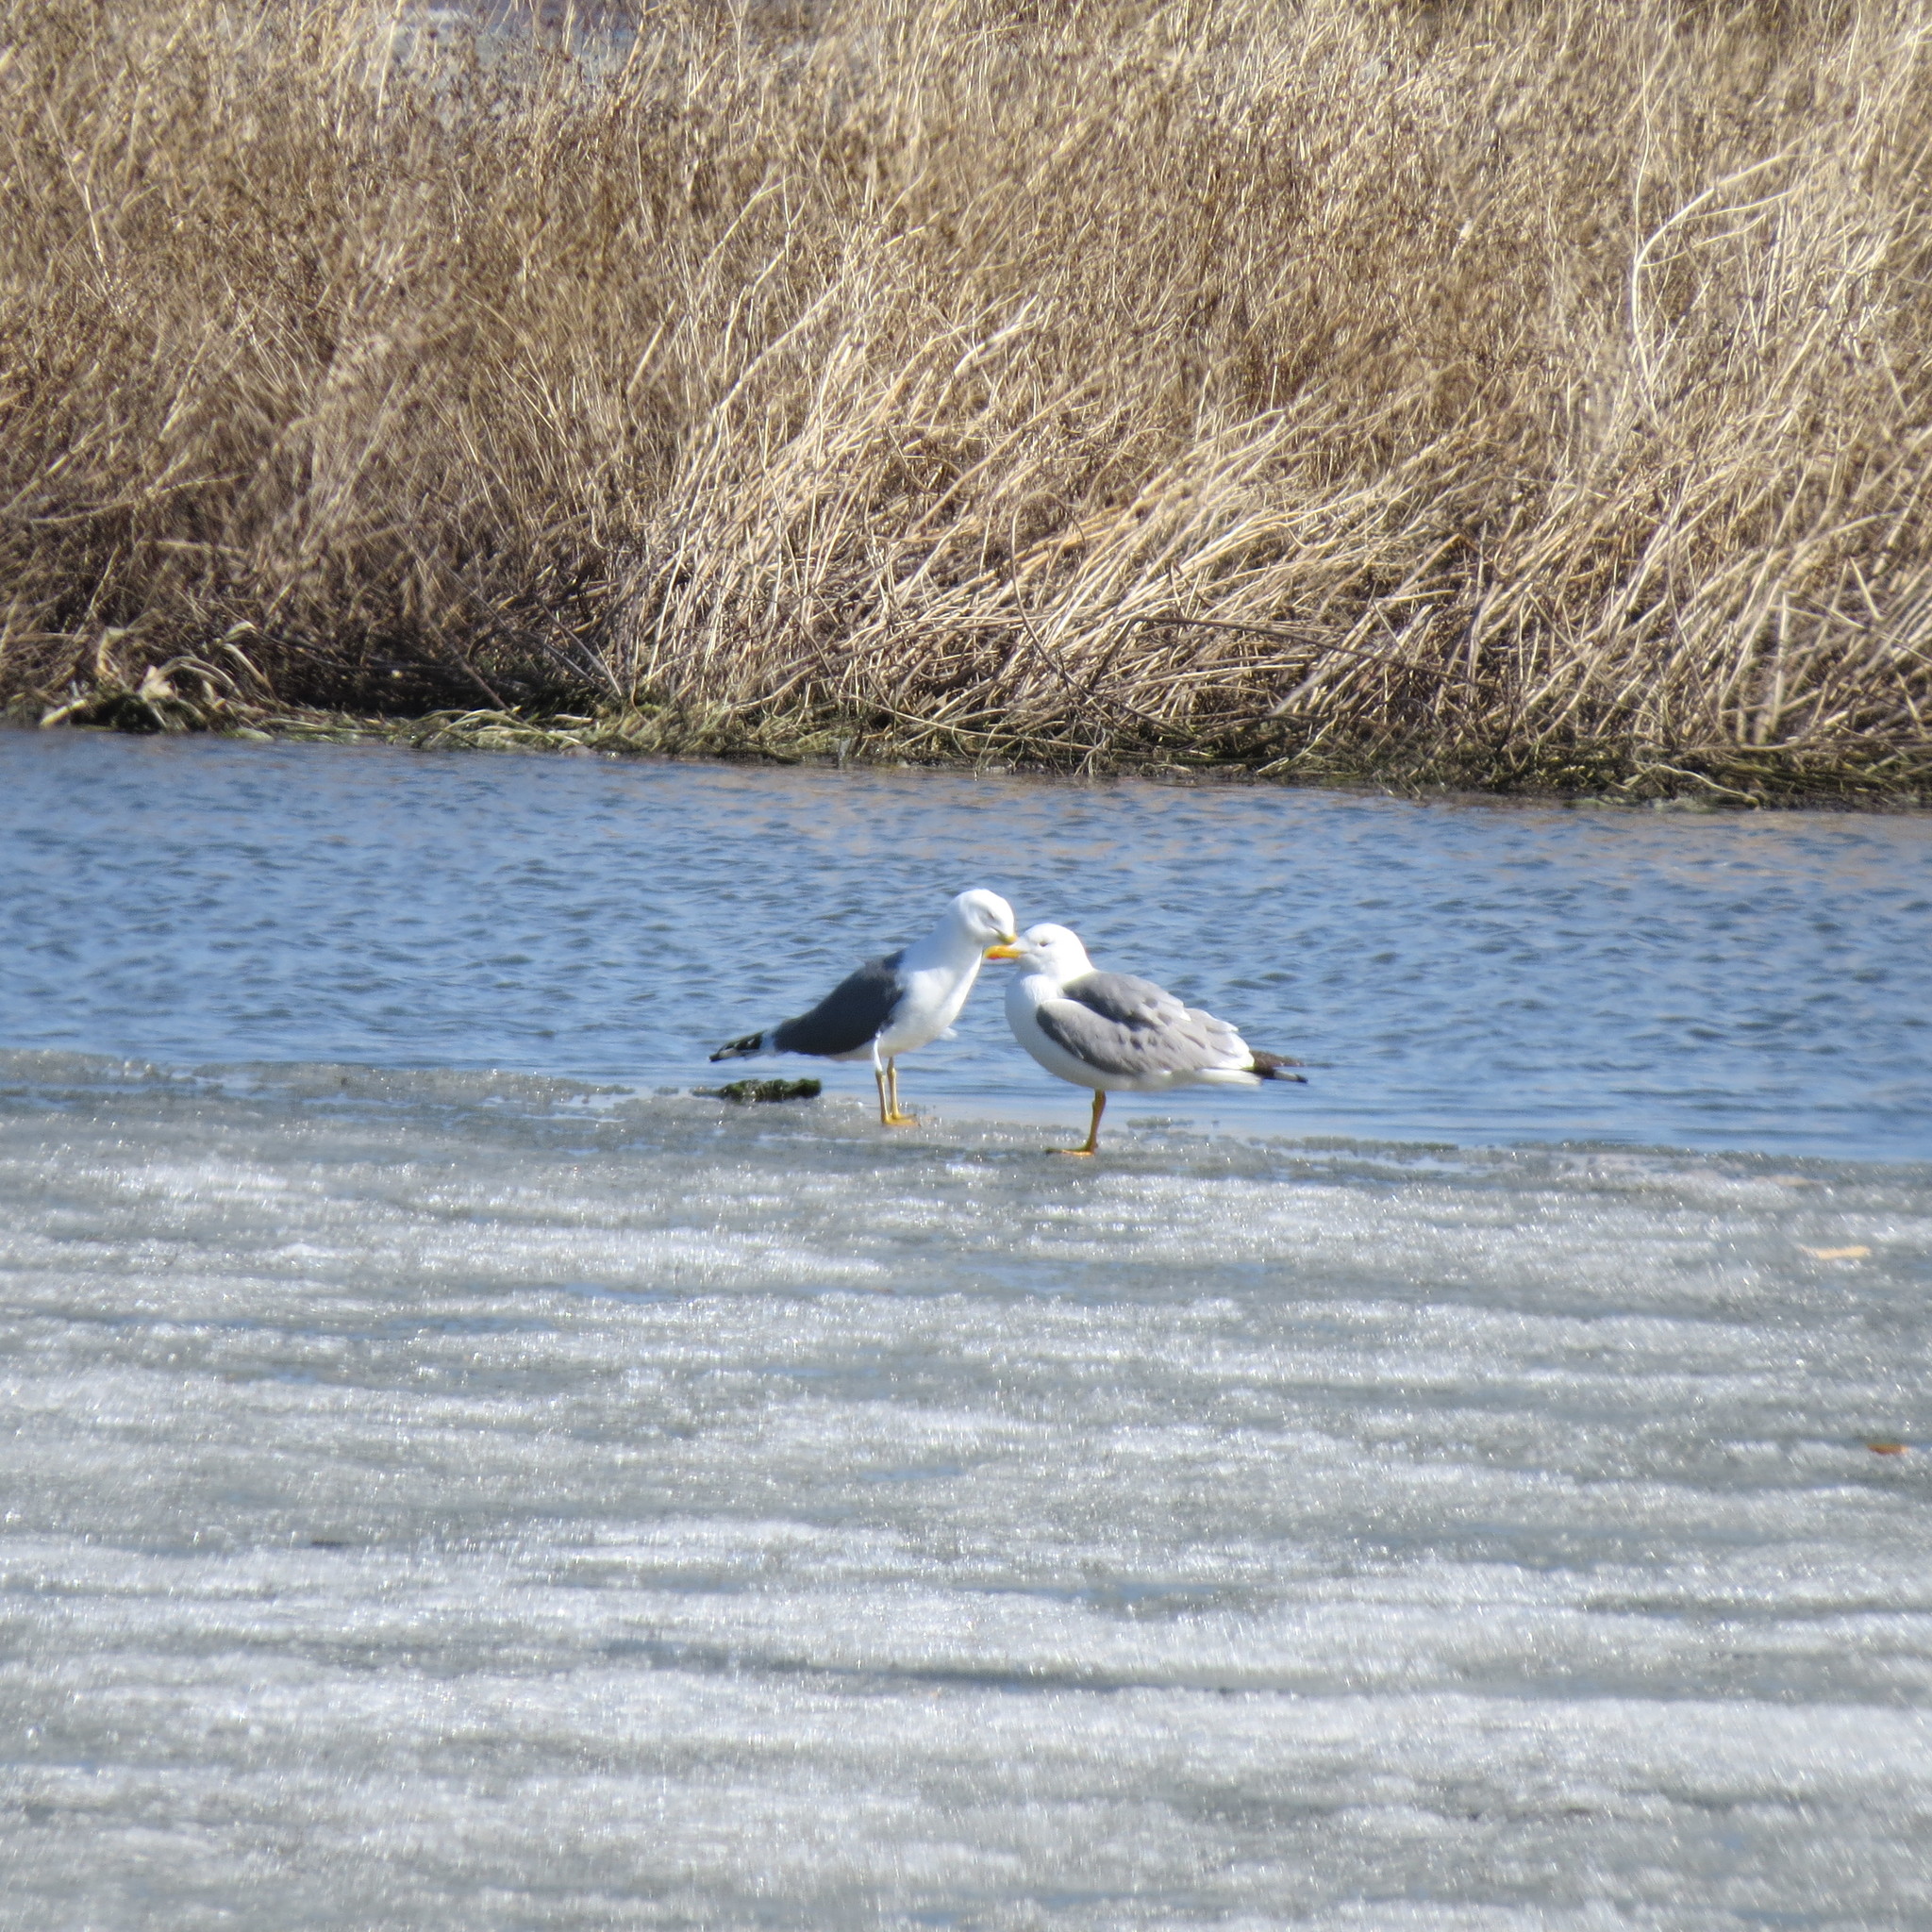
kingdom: Animalia
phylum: Chordata
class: Aves
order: Charadriiformes
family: Laridae
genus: Larus
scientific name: Larus fuscus
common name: Lesser black-backed gull
